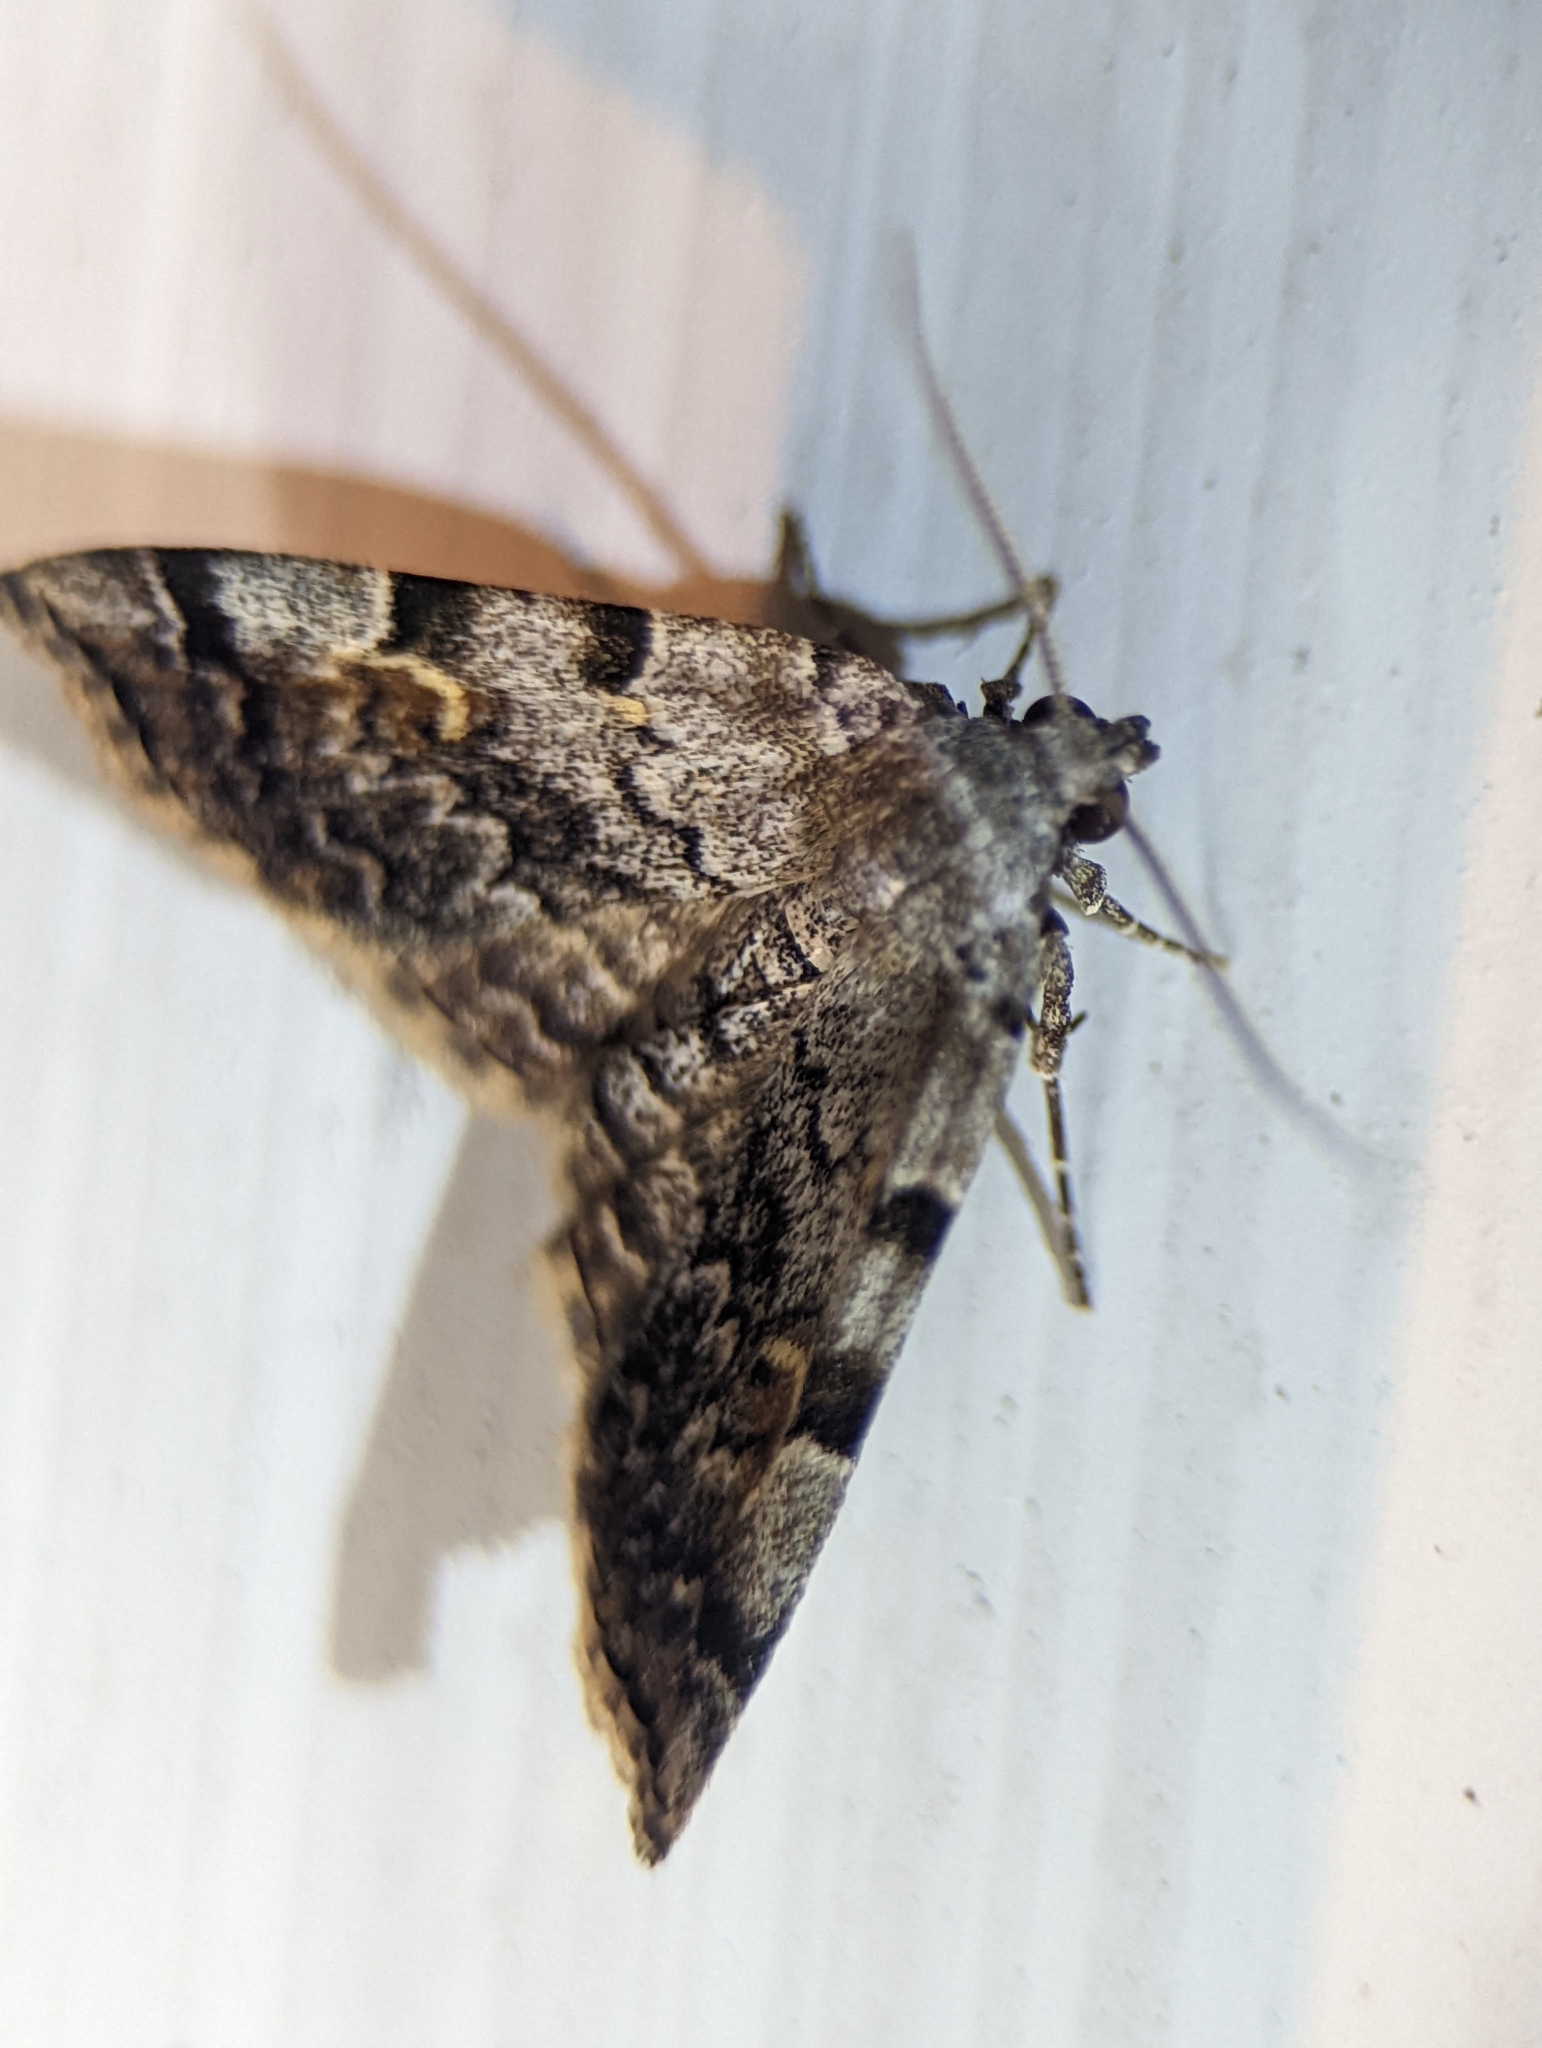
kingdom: Animalia
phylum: Arthropoda
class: Insecta
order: Lepidoptera
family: Erebidae
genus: Idia
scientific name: Idia americalis
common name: American idia moth
